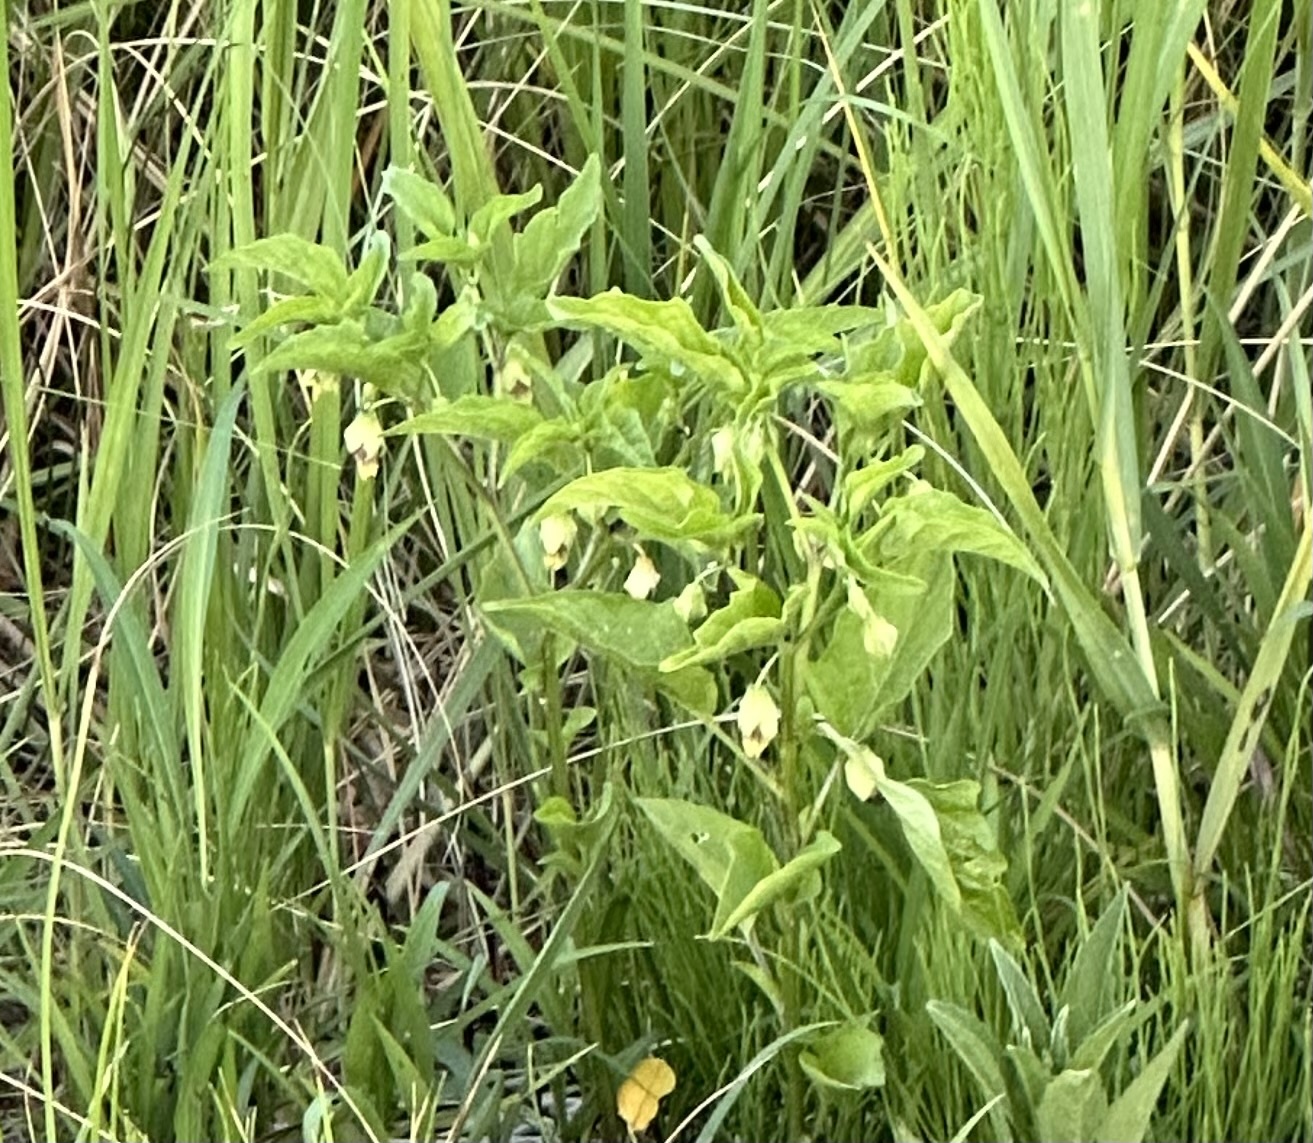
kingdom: Plantae
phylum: Tracheophyta
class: Magnoliopsida
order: Solanales
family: Solanaceae
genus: Physalis
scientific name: Physalis longifolia
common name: Common ground-cherry
